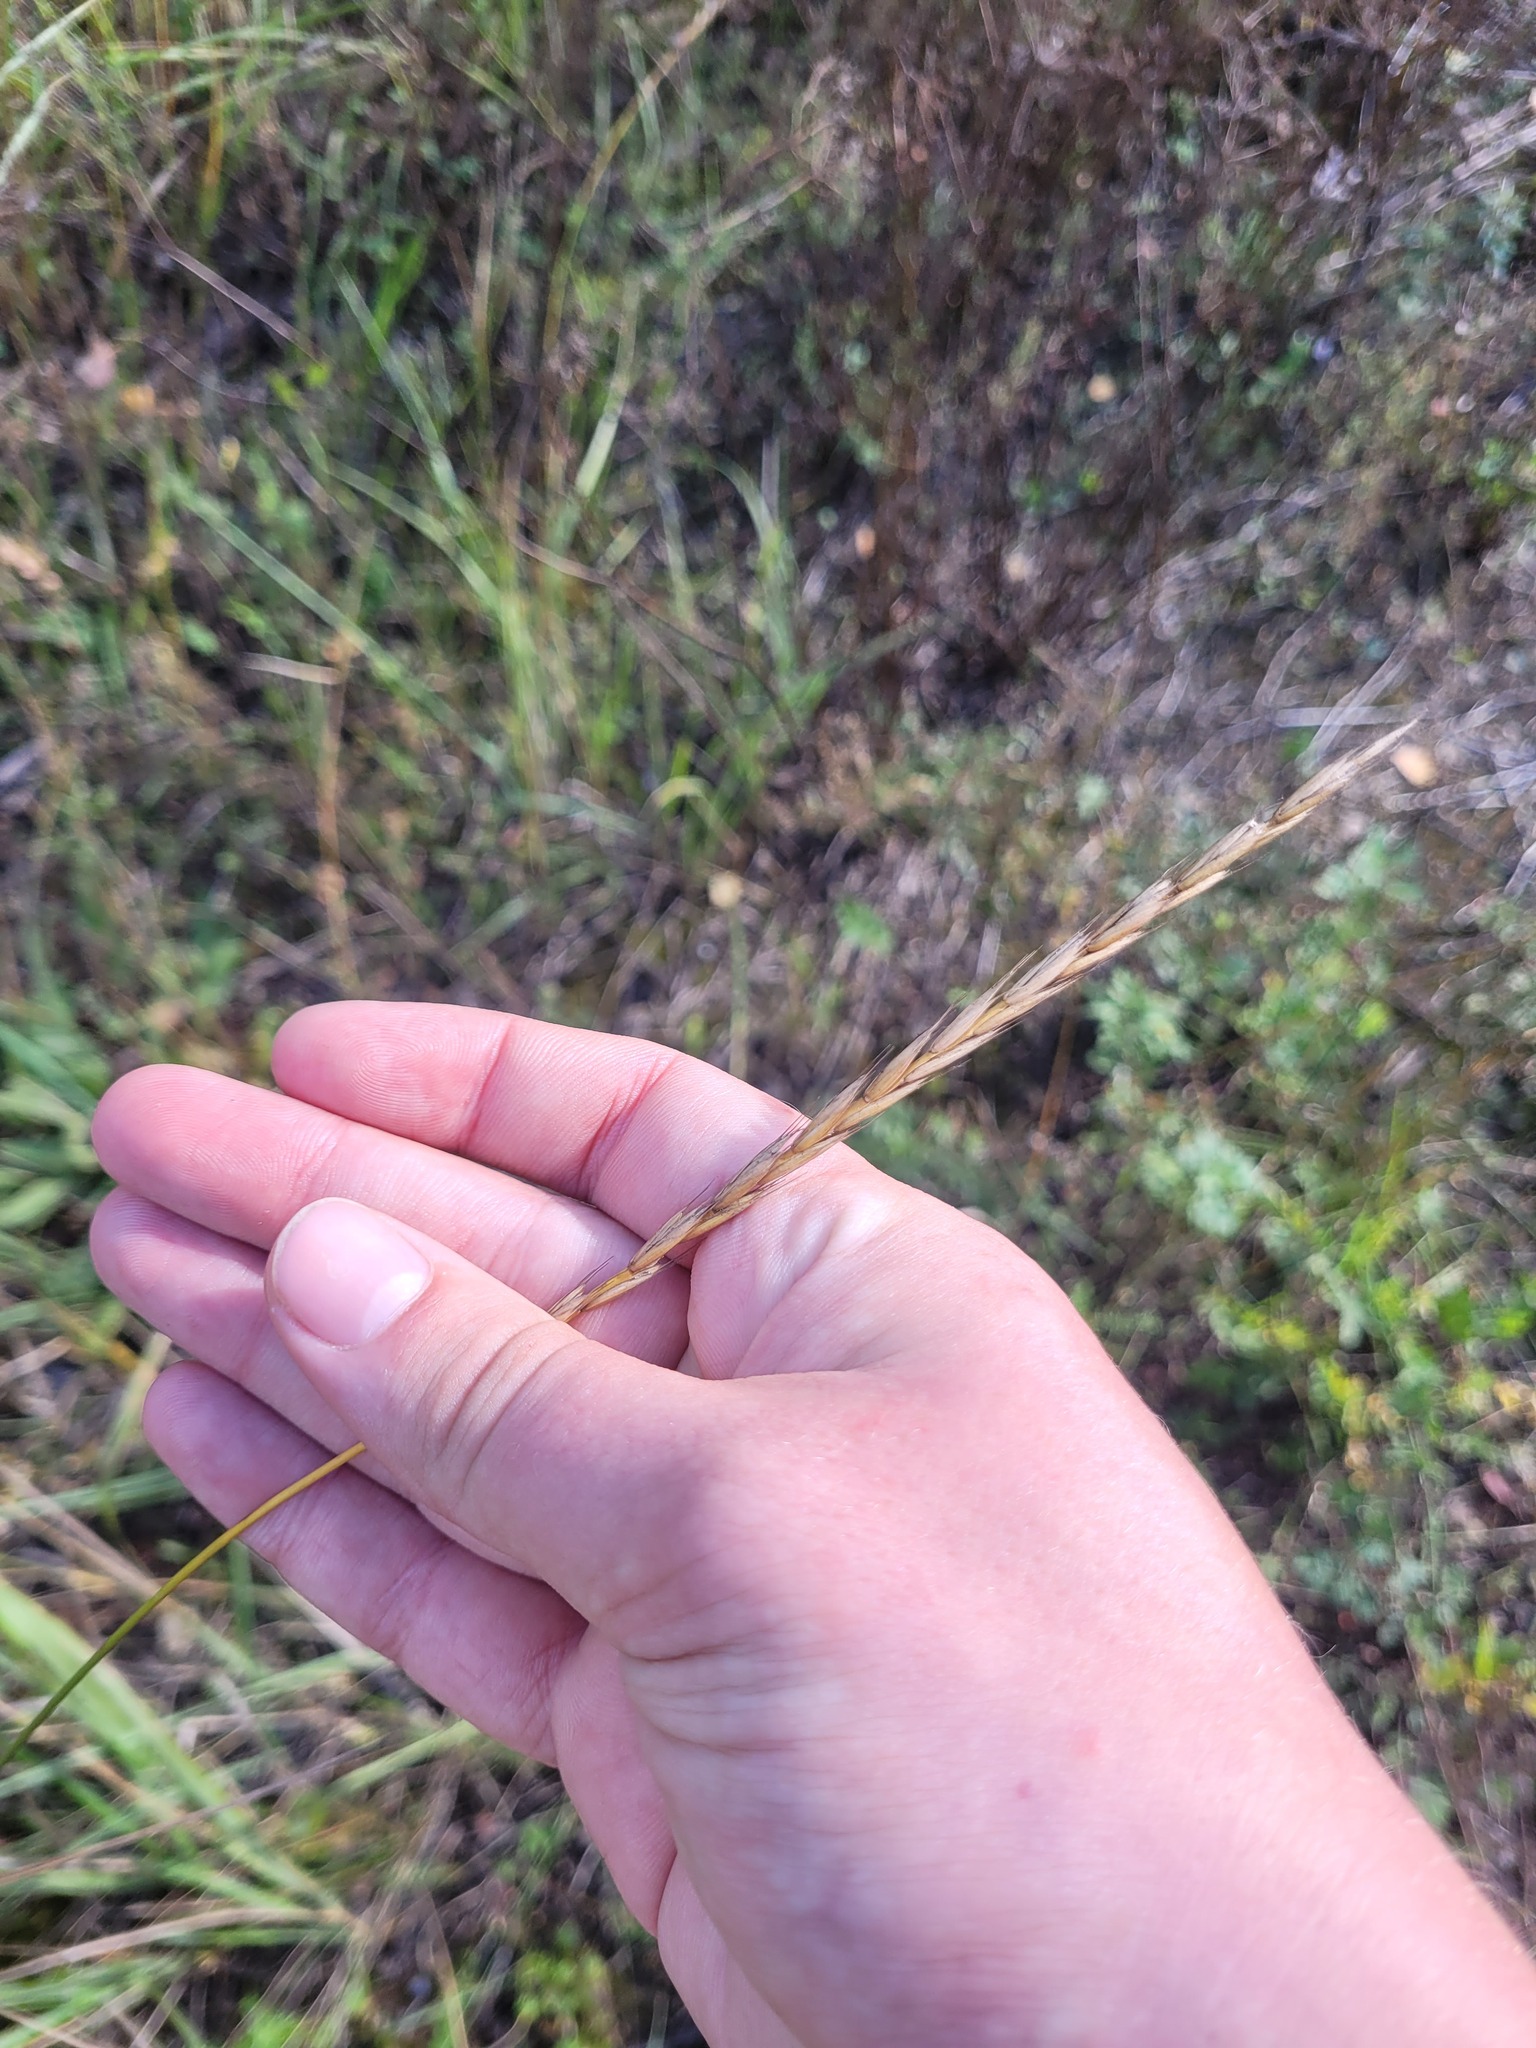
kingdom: Plantae
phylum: Tracheophyta
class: Liliopsida
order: Poales
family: Poaceae
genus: Elymus
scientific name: Elymus repens
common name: Quackgrass
